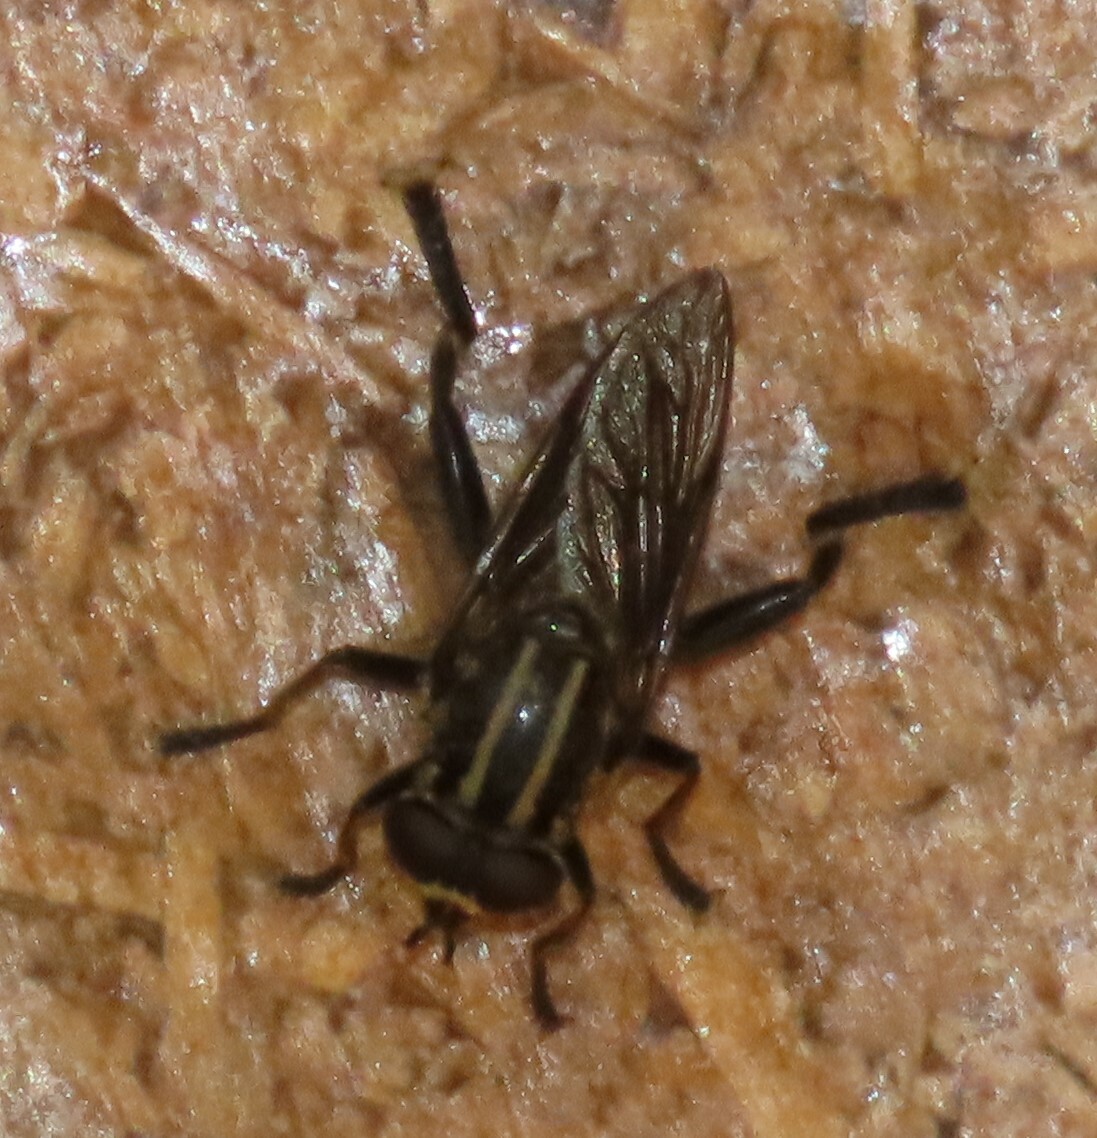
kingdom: Animalia
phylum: Arthropoda
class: Insecta
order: Diptera
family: Syrphidae
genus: Orthoprosopa
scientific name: Orthoprosopa bilineata
